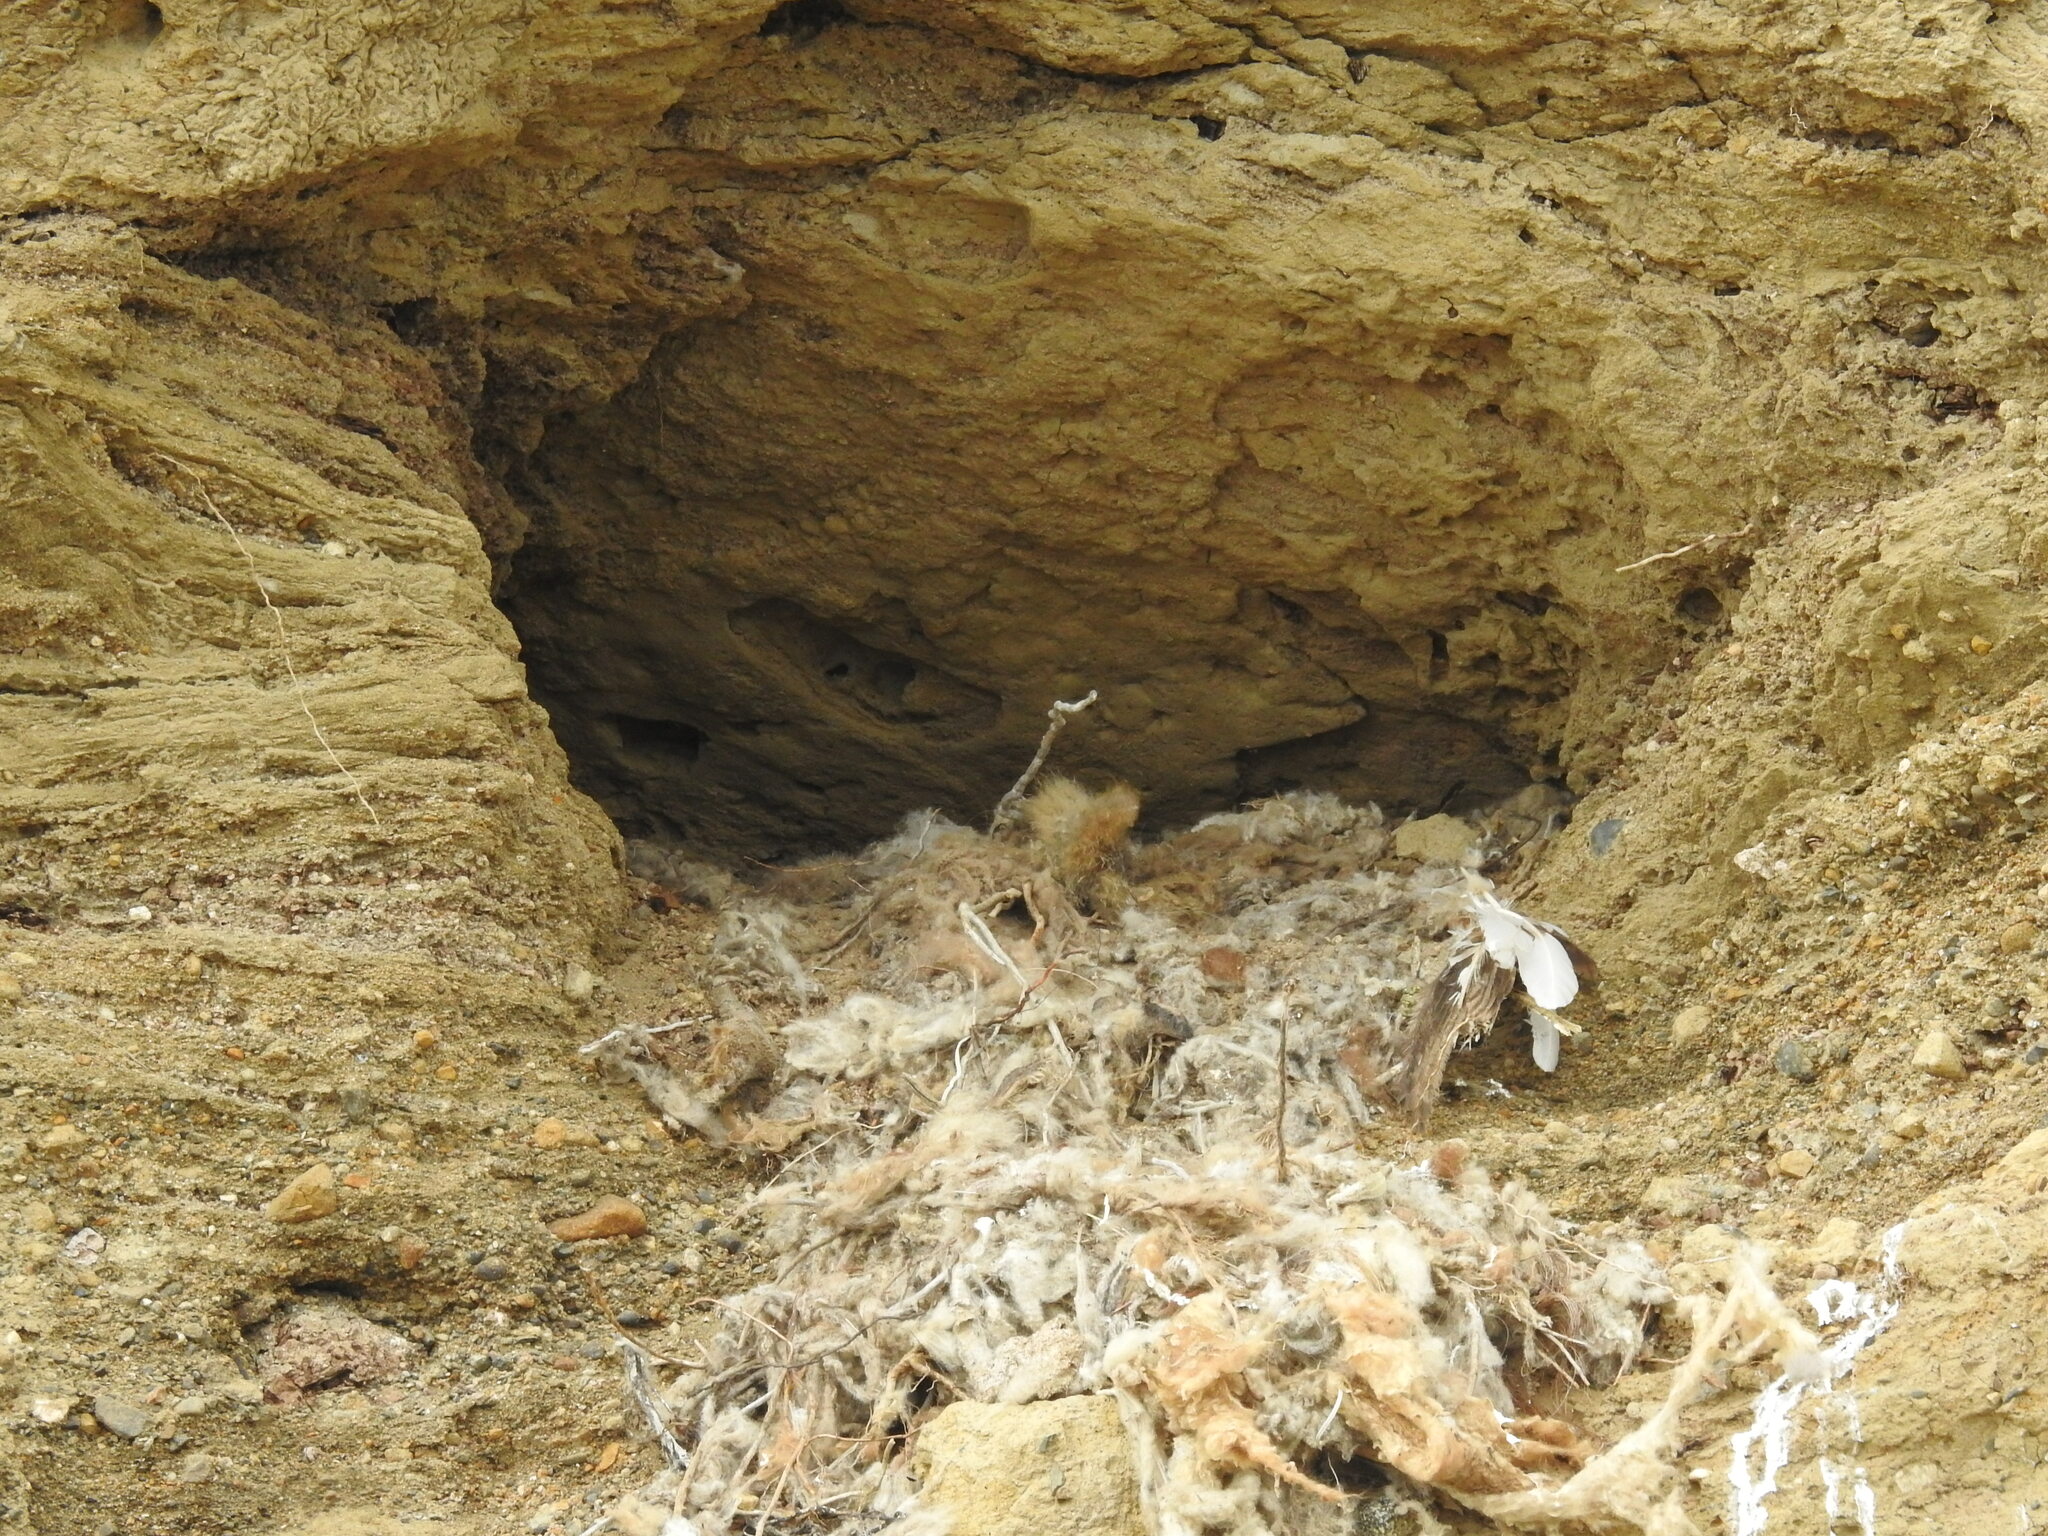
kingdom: Animalia
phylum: Chordata
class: Aves
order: Falconiformes
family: Falconidae
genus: Caracara
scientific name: Caracara plancus
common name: Southern caracara
